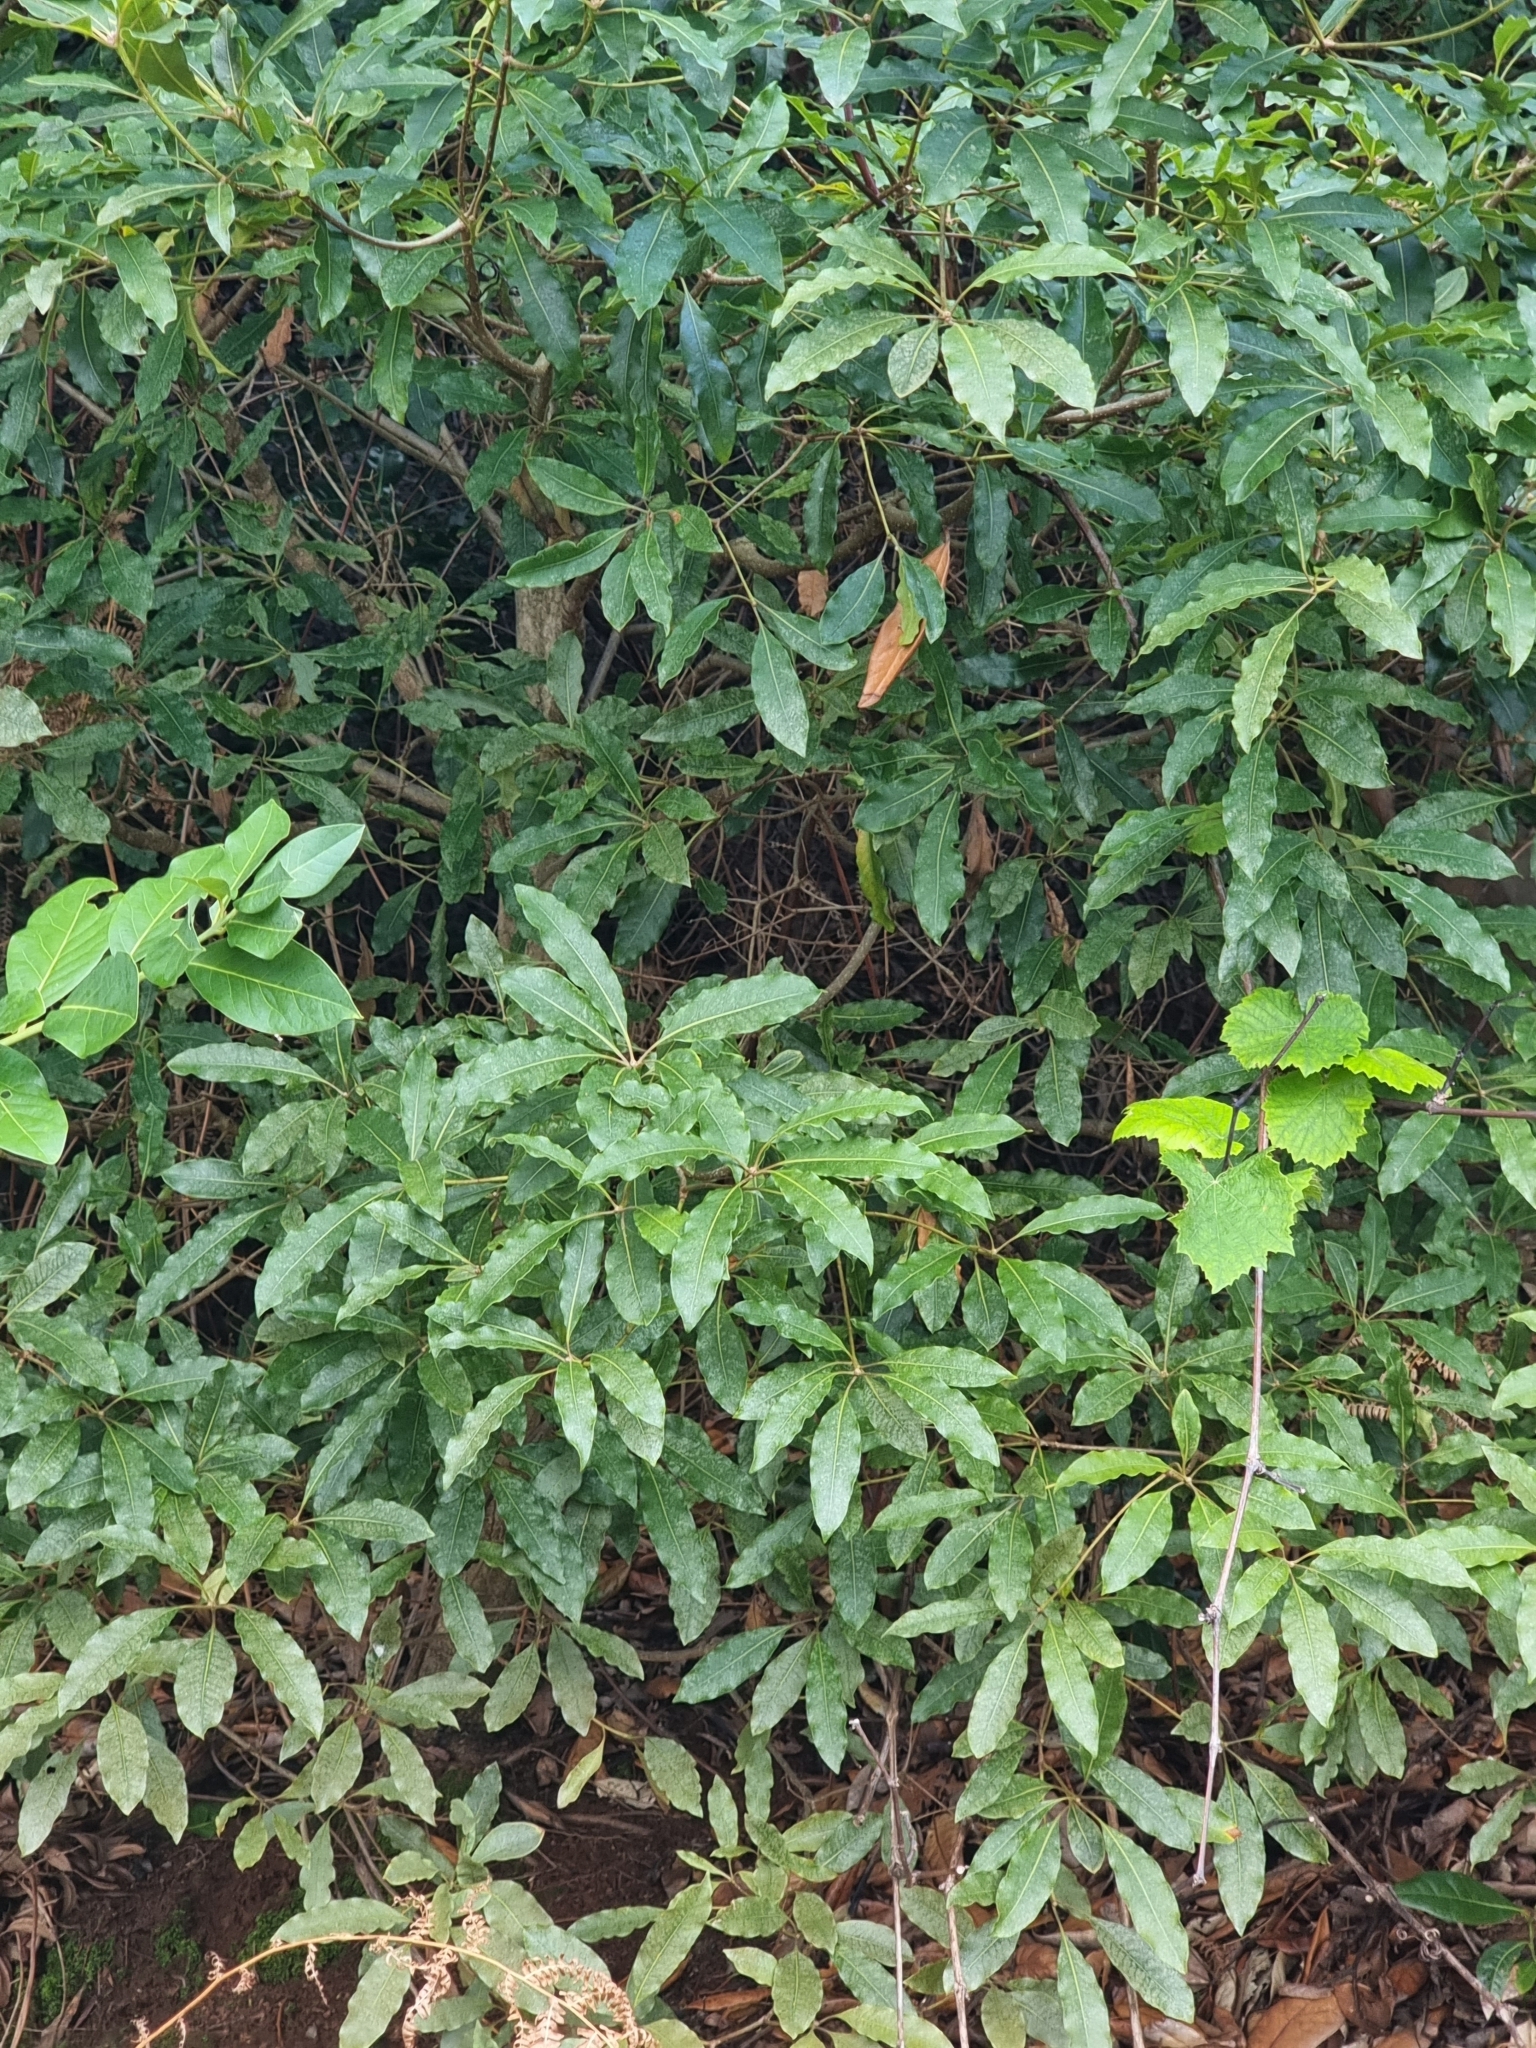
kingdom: Plantae
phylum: Tracheophyta
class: Magnoliopsida
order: Apiales
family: Pittosporaceae
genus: Pittosporum
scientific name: Pittosporum undulatum
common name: Australian cheesewood
